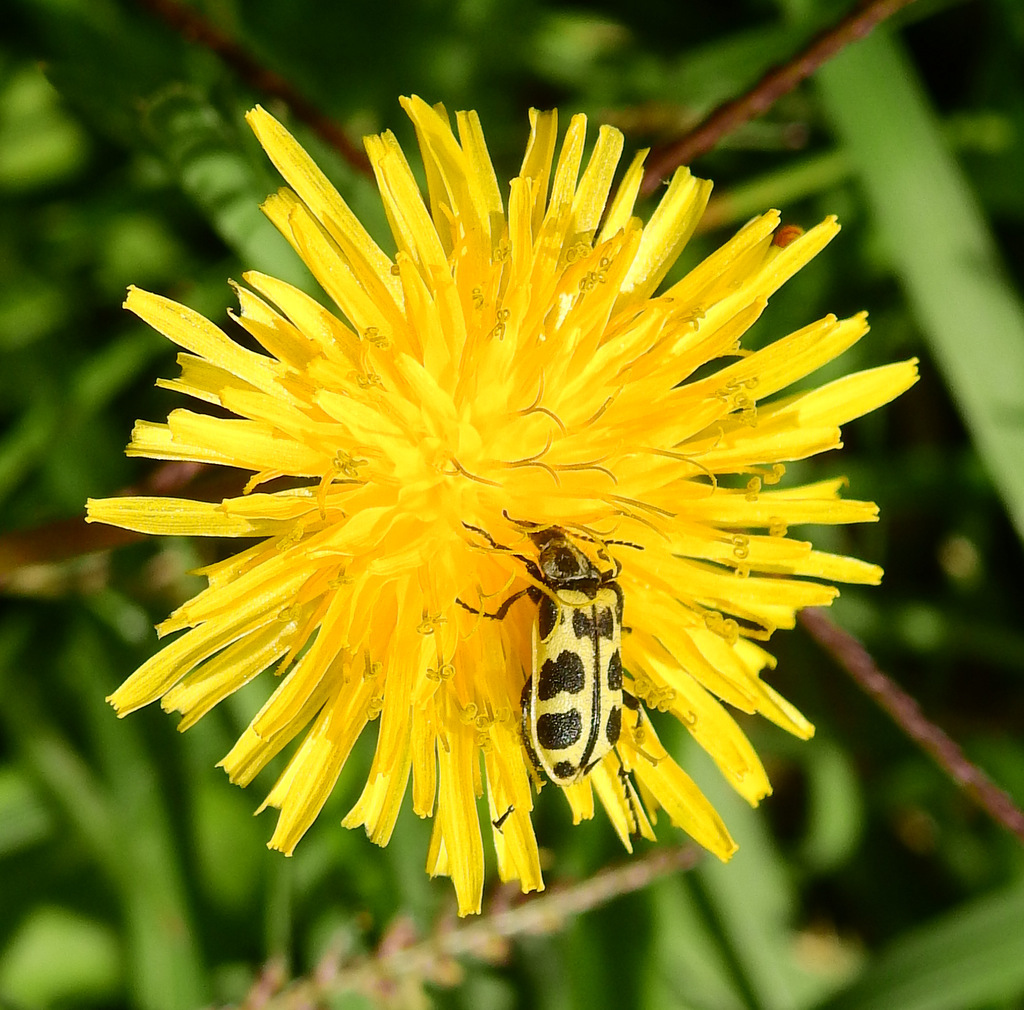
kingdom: Animalia
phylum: Arthropoda
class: Insecta
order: Coleoptera
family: Melyridae
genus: Astylus
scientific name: Astylus atromaculatus
